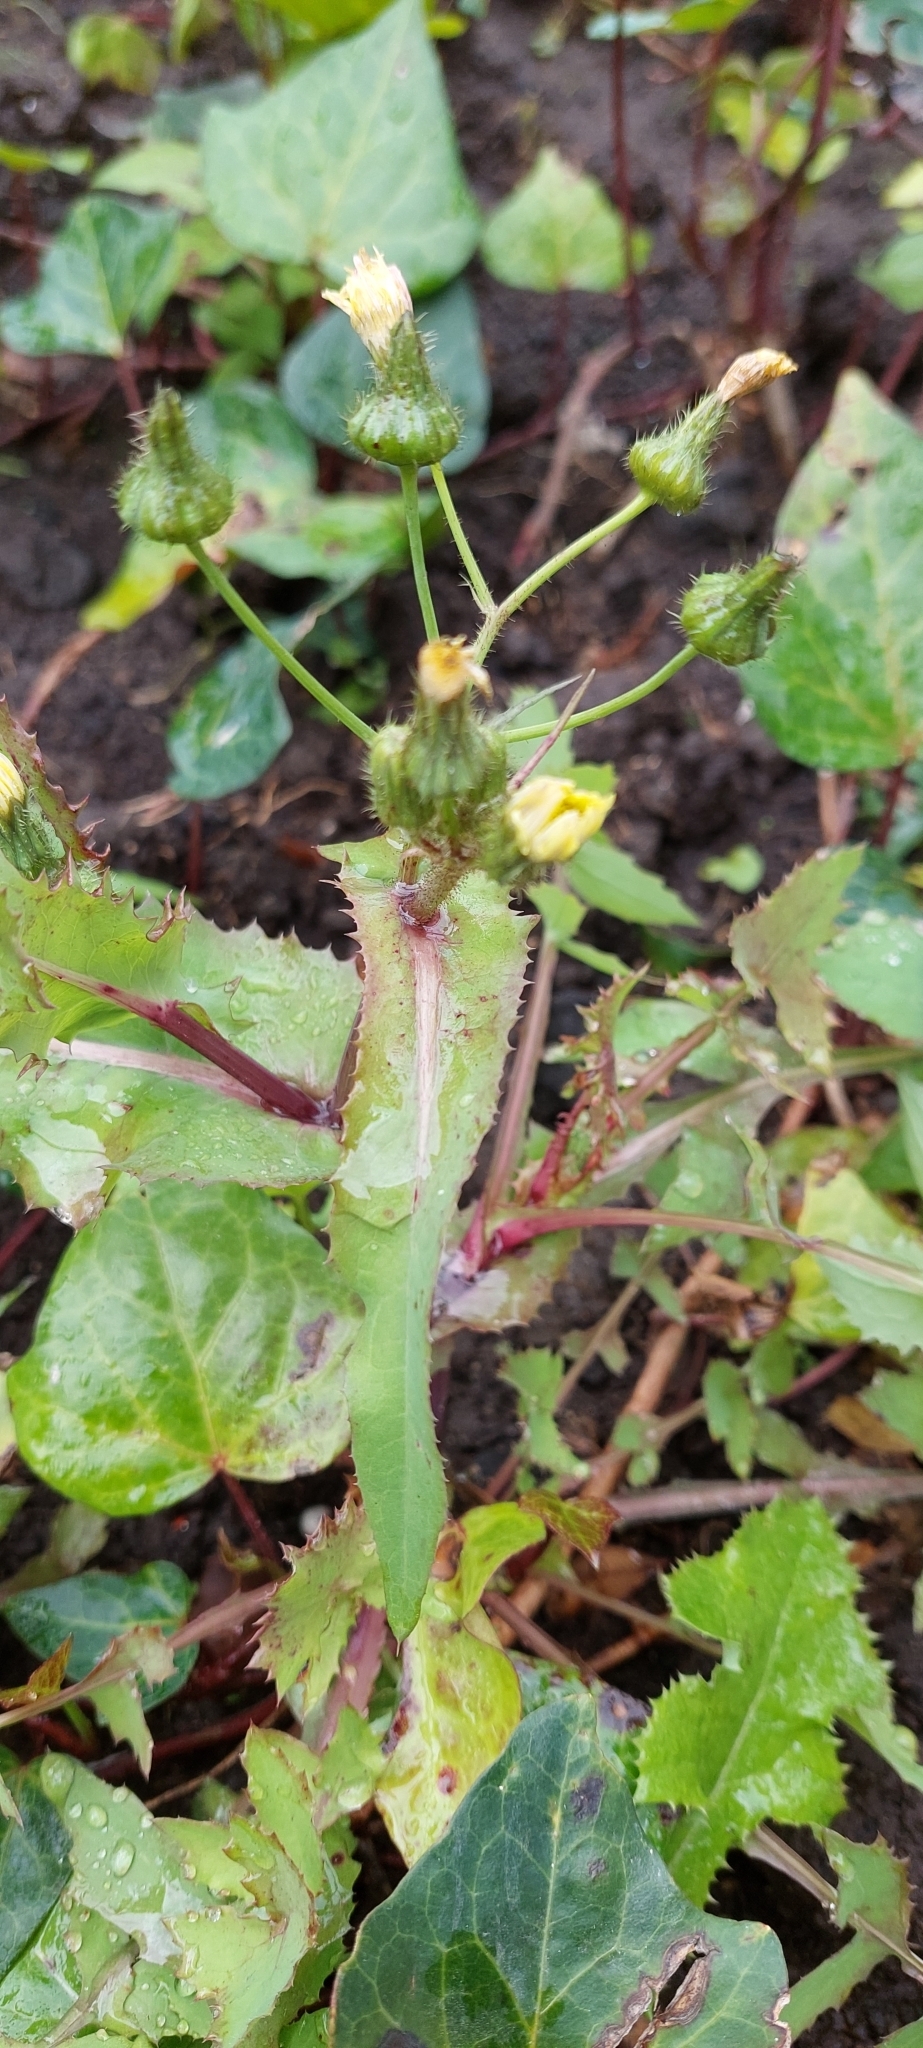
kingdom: Plantae
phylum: Tracheophyta
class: Magnoliopsida
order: Asterales
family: Asteraceae
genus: Sonchus
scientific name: Sonchus oleraceus
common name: Common sowthistle
